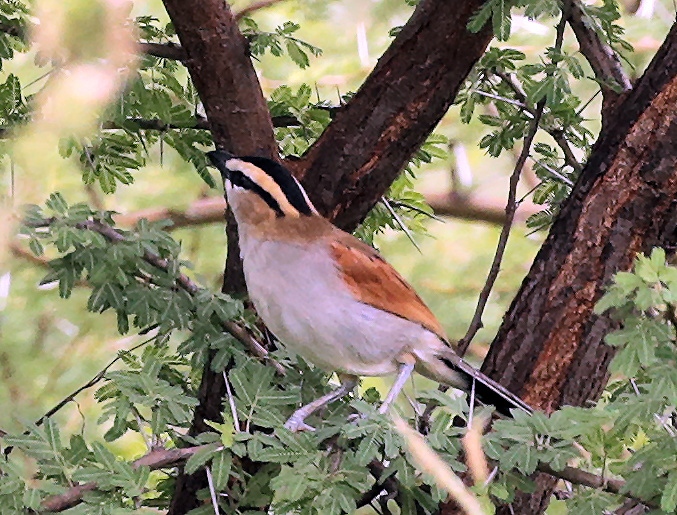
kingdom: Animalia
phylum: Chordata
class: Aves
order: Passeriformes
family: Malaconotidae
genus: Tchagra
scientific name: Tchagra senegalus
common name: Black-crowned tchagra
